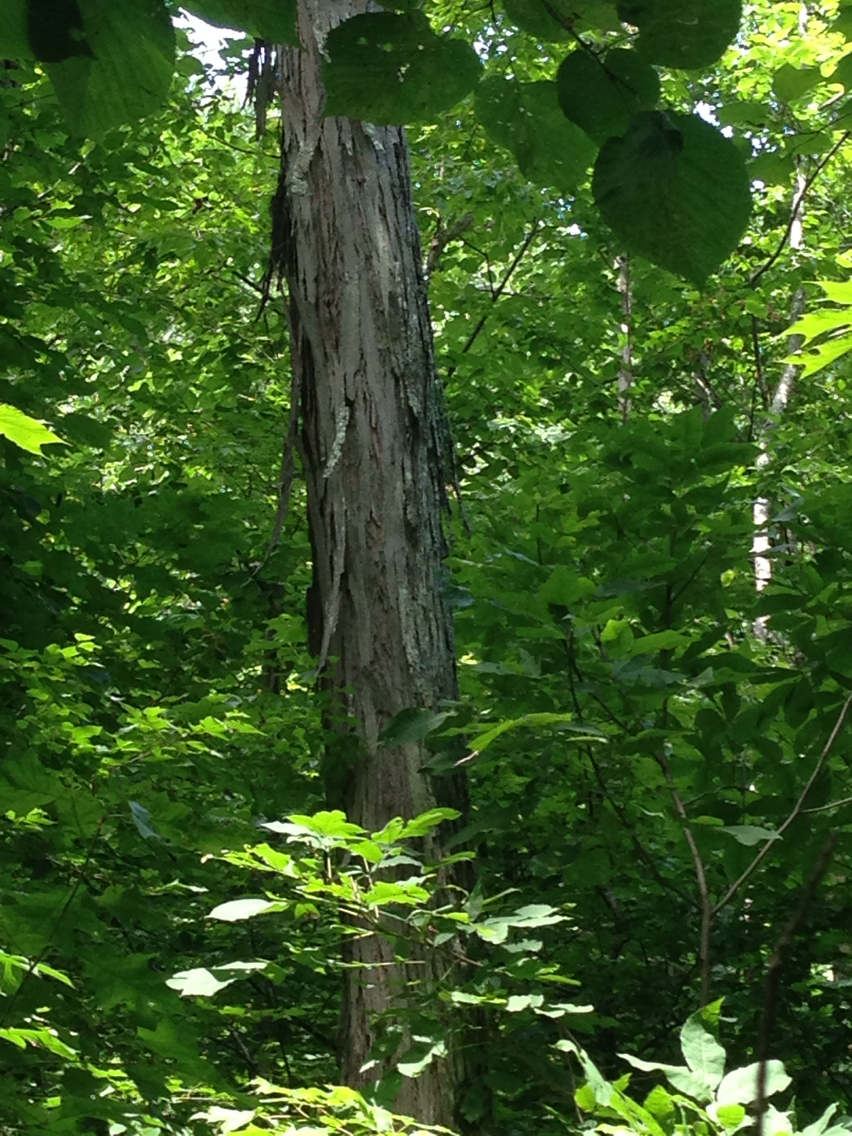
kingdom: Plantae
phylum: Tracheophyta
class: Magnoliopsida
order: Fagales
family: Juglandaceae
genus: Carya
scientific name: Carya ovata
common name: Shagbark hickory
